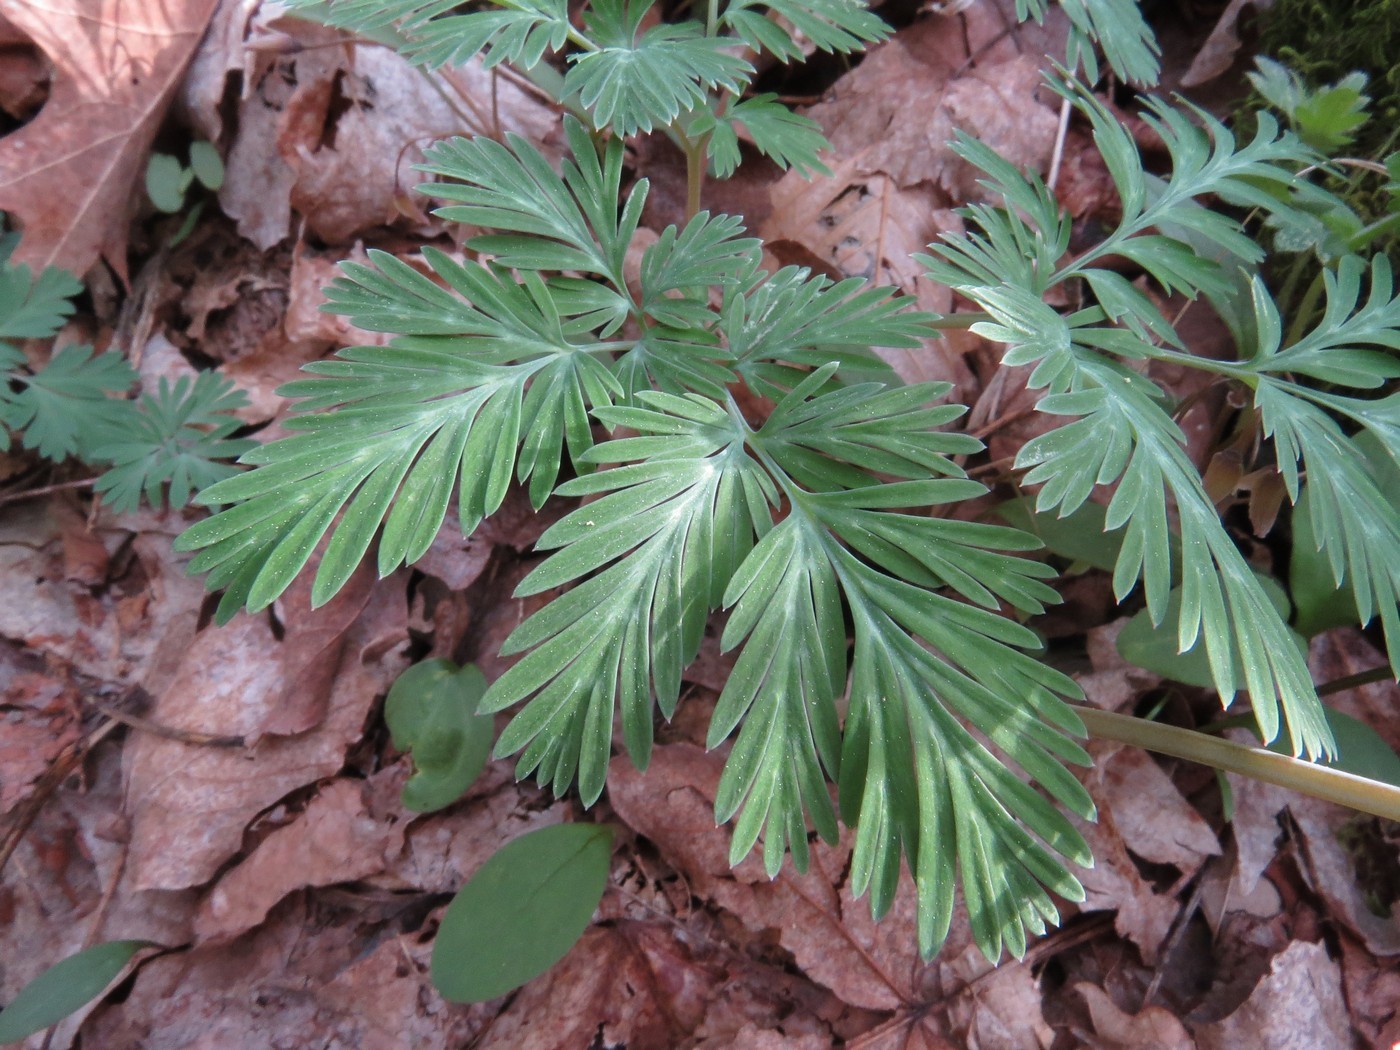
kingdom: Plantae
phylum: Tracheophyta
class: Magnoliopsida
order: Ranunculales
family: Papaveraceae
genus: Dicentra
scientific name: Dicentra cucullaria
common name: Dutchman's breeches
